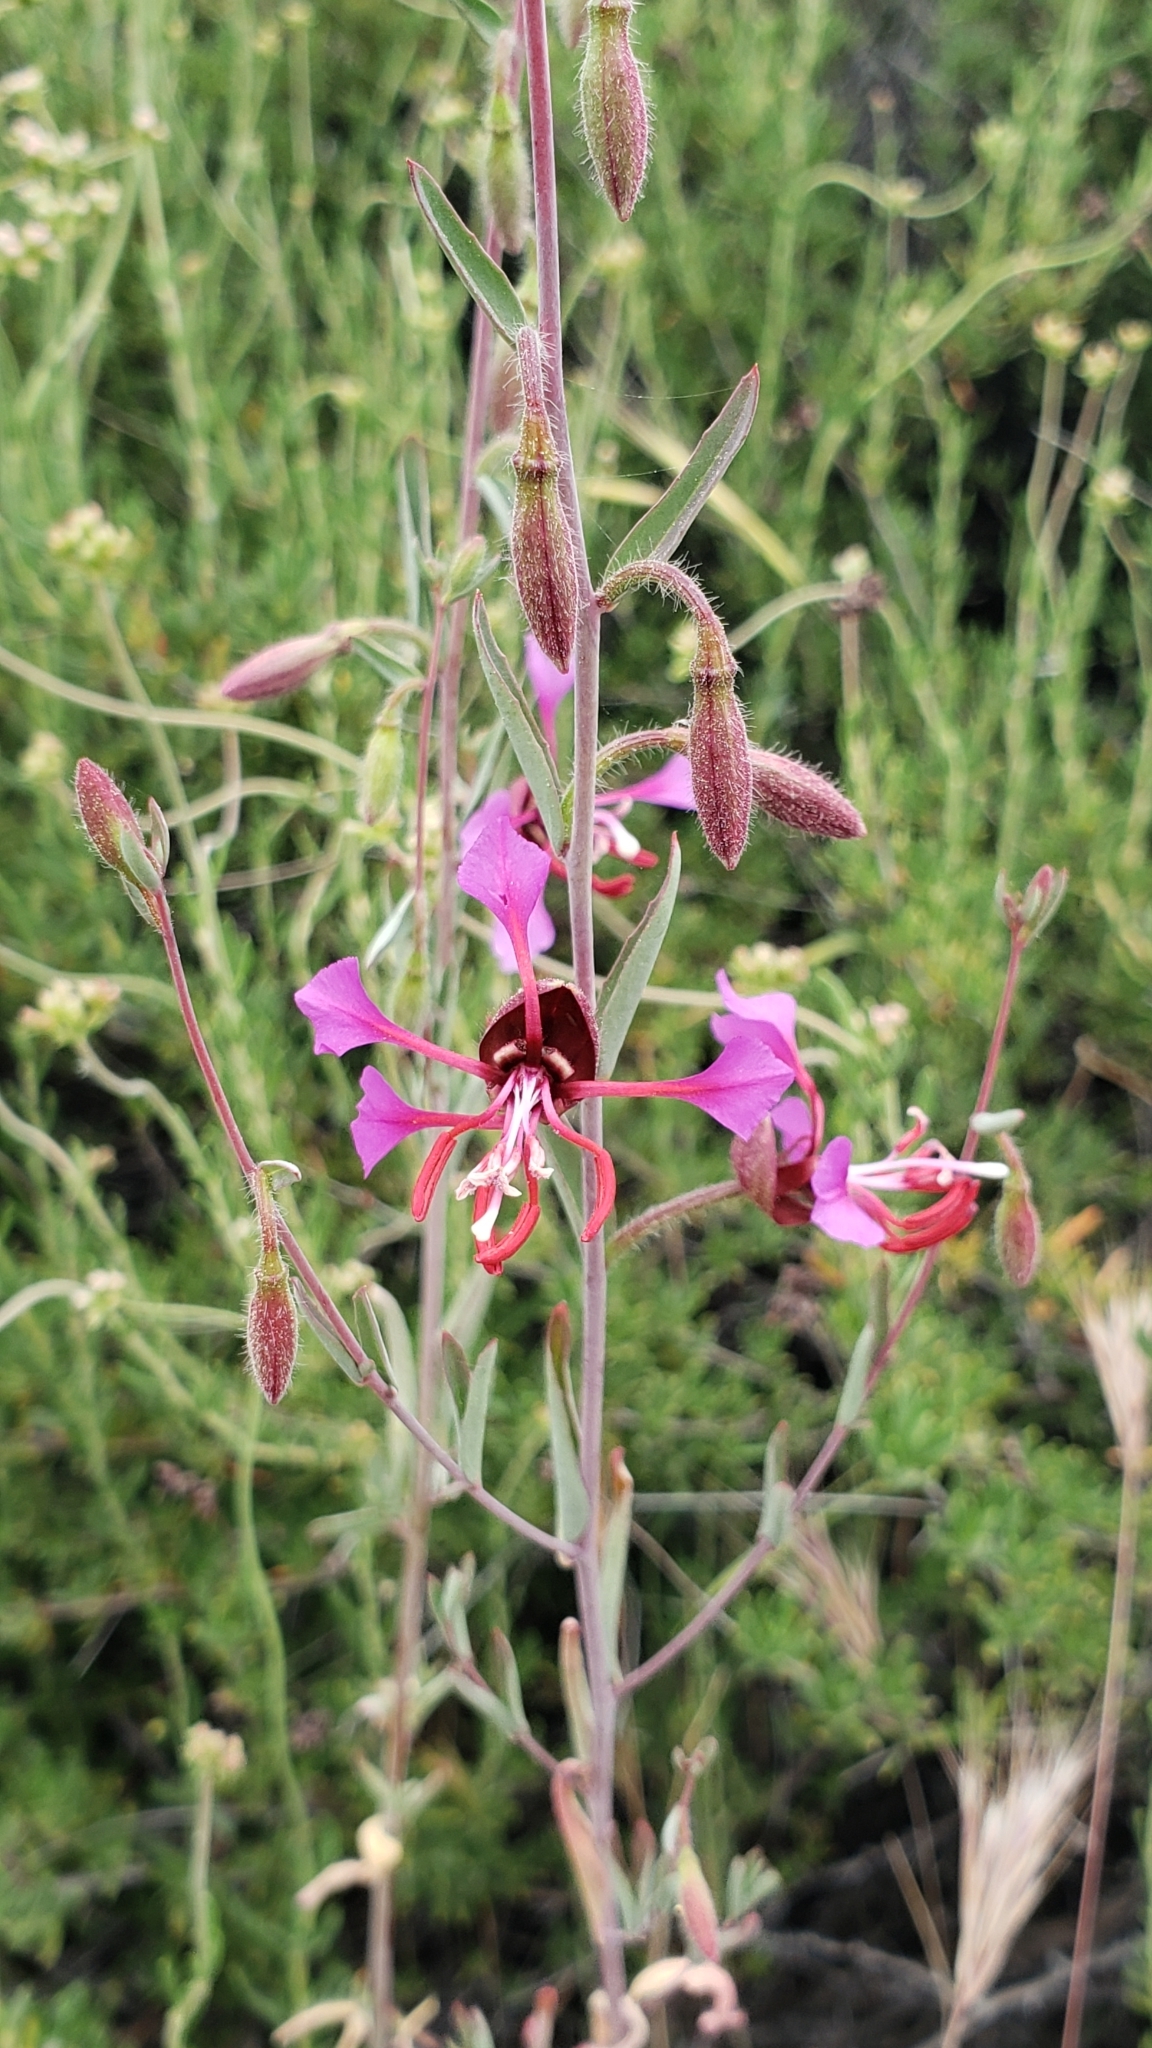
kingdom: Plantae
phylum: Tracheophyta
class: Magnoliopsida
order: Myrtales
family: Onagraceae
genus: Clarkia
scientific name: Clarkia unguiculata
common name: Clarkia
